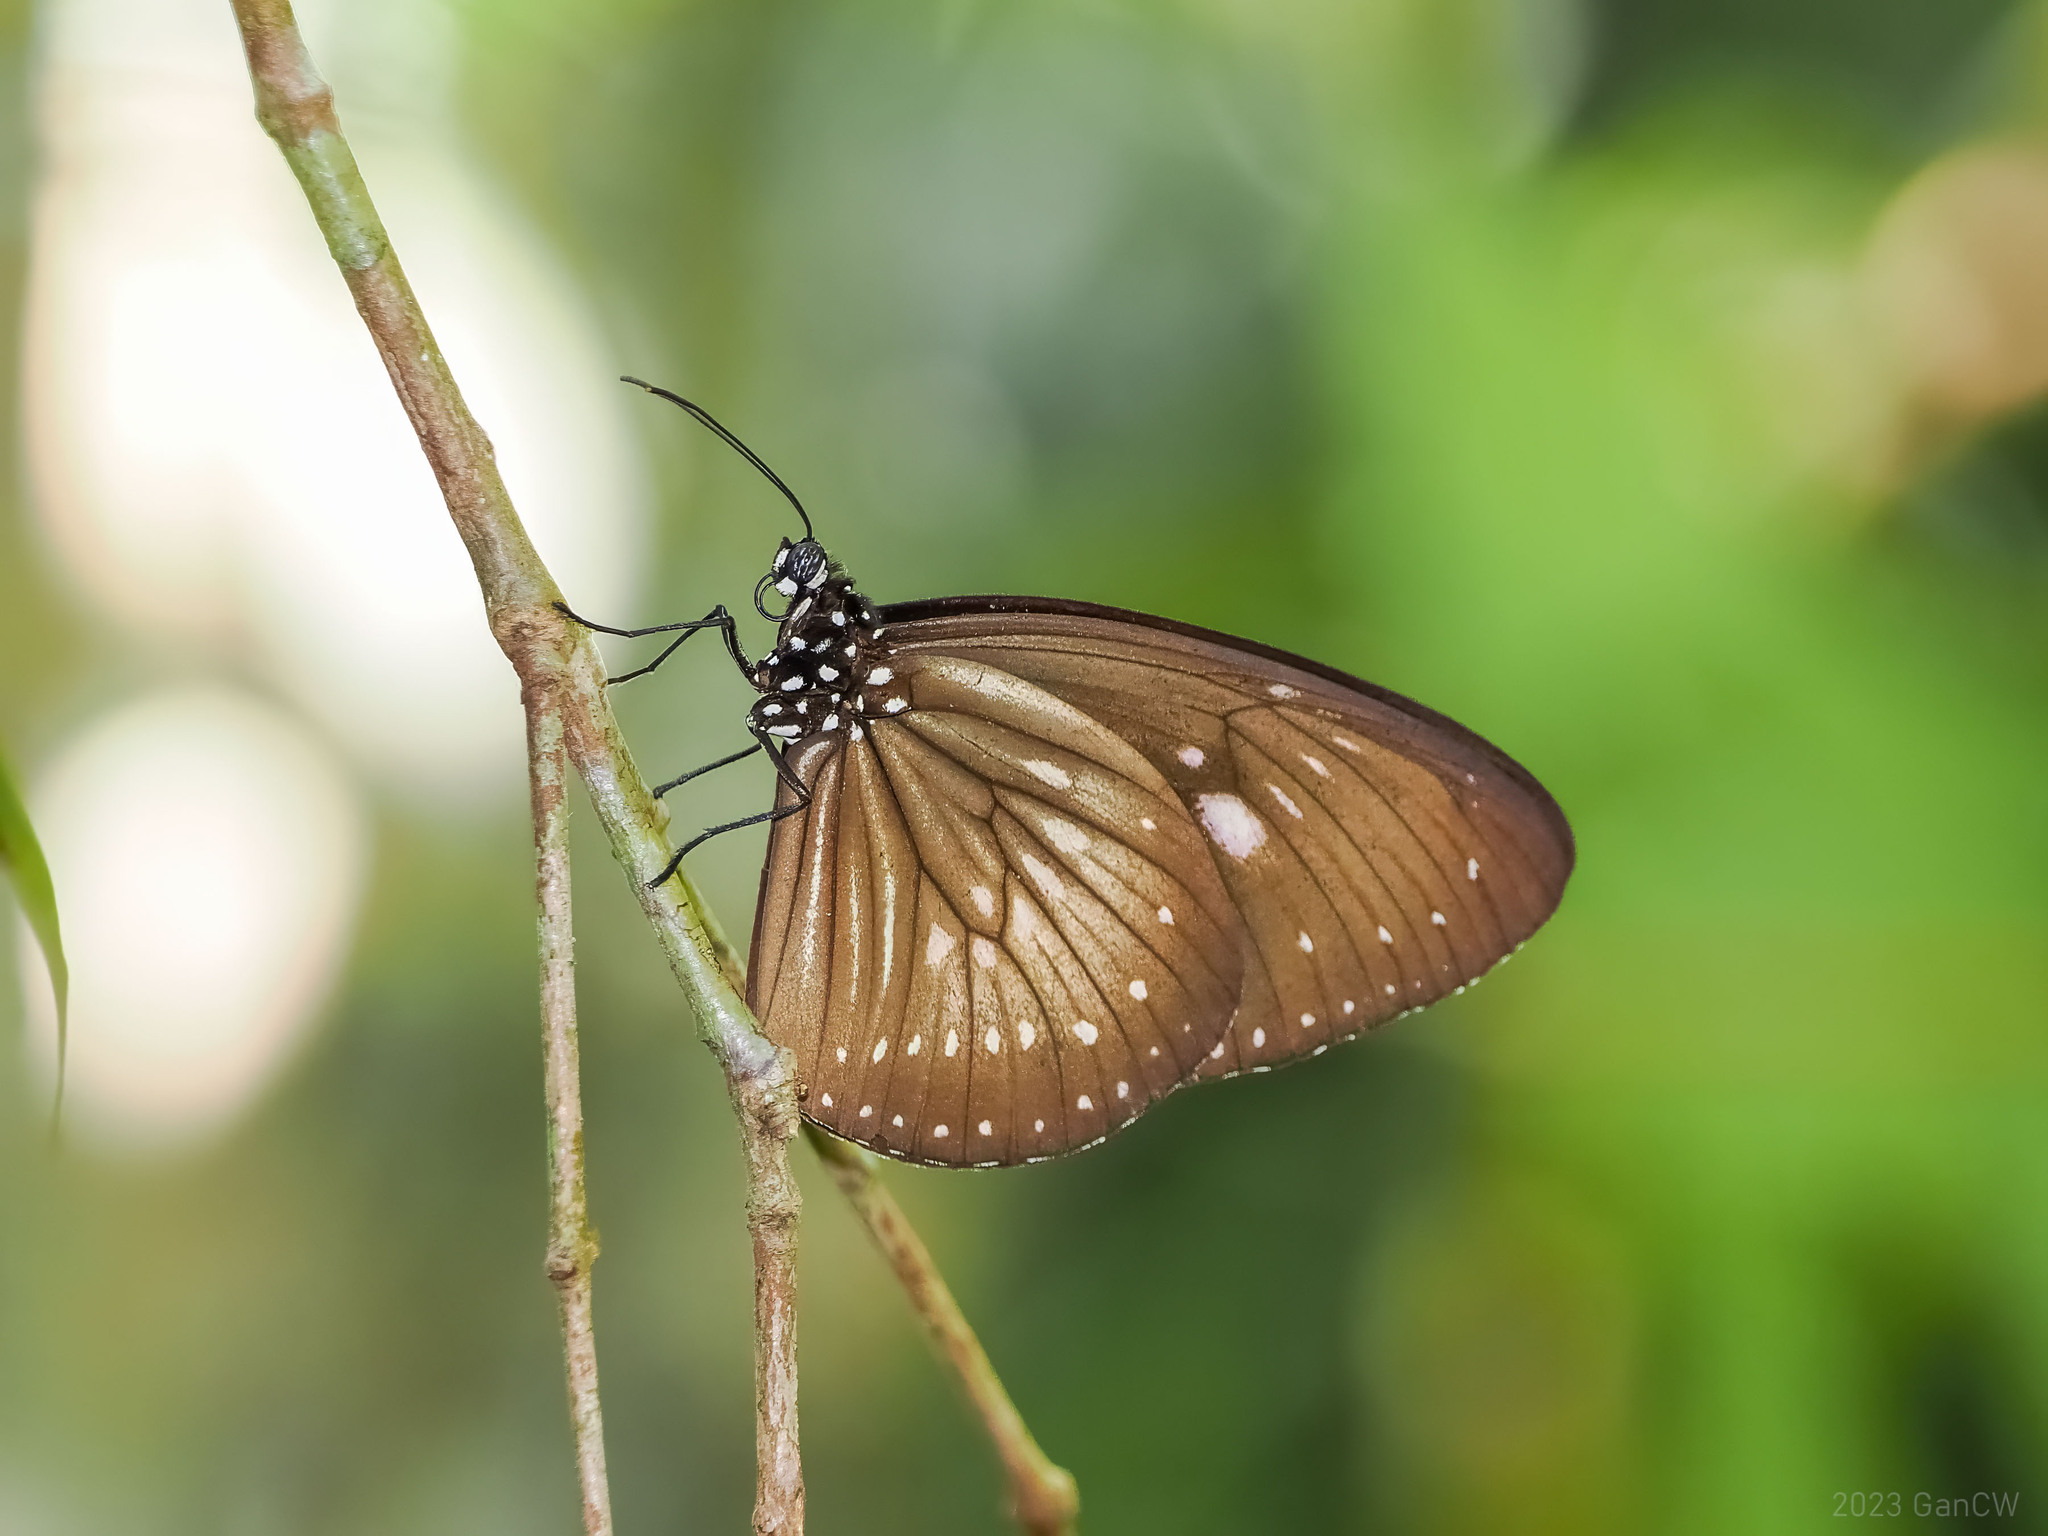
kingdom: Animalia
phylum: Arthropoda
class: Insecta
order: Lepidoptera
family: Nymphalidae
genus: Euploea
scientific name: Euploea algea
